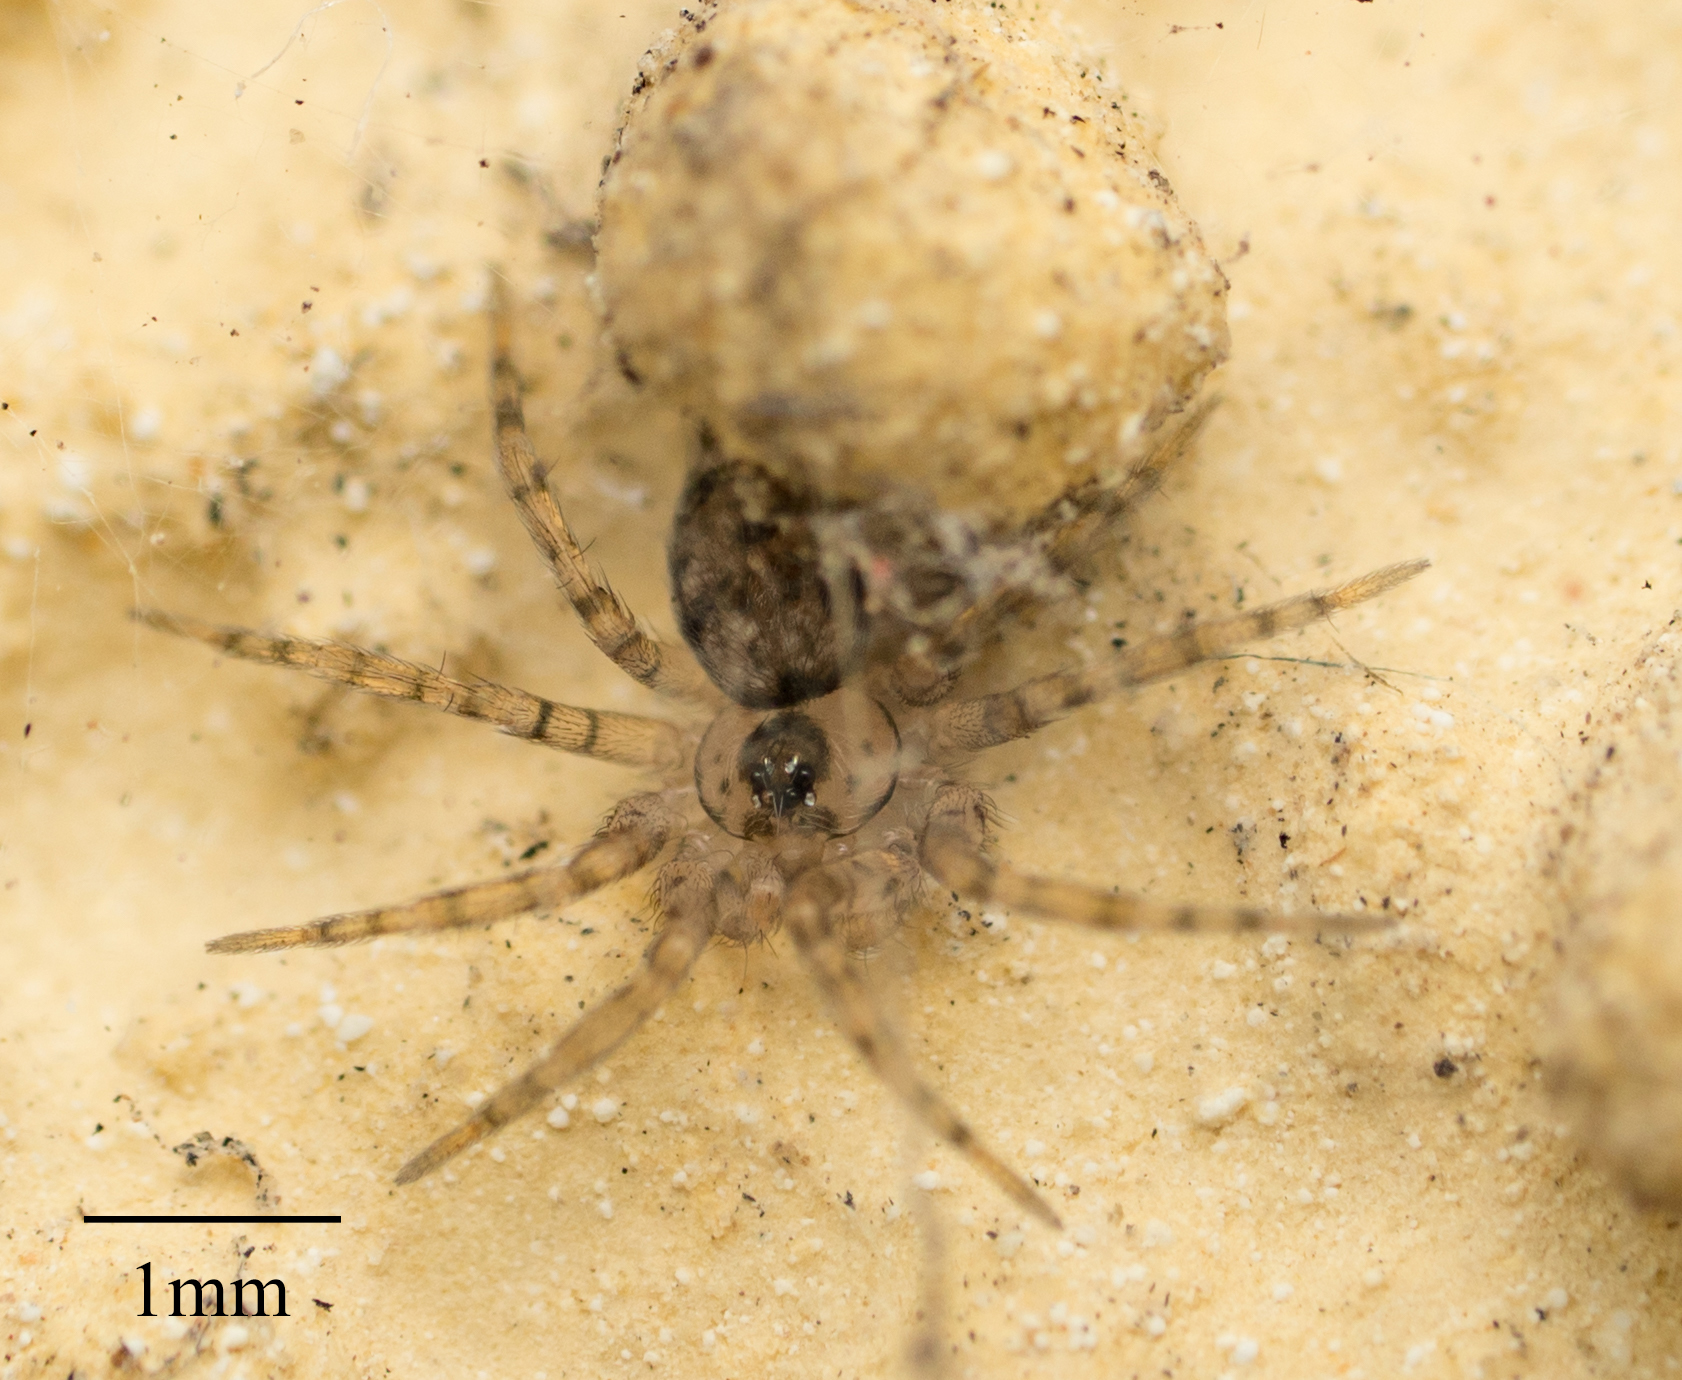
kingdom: Animalia
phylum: Arthropoda
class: Arachnida
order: Araneae
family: Oecobiidae
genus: Oecobius
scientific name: Oecobius navus
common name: Flatmesh weaver
